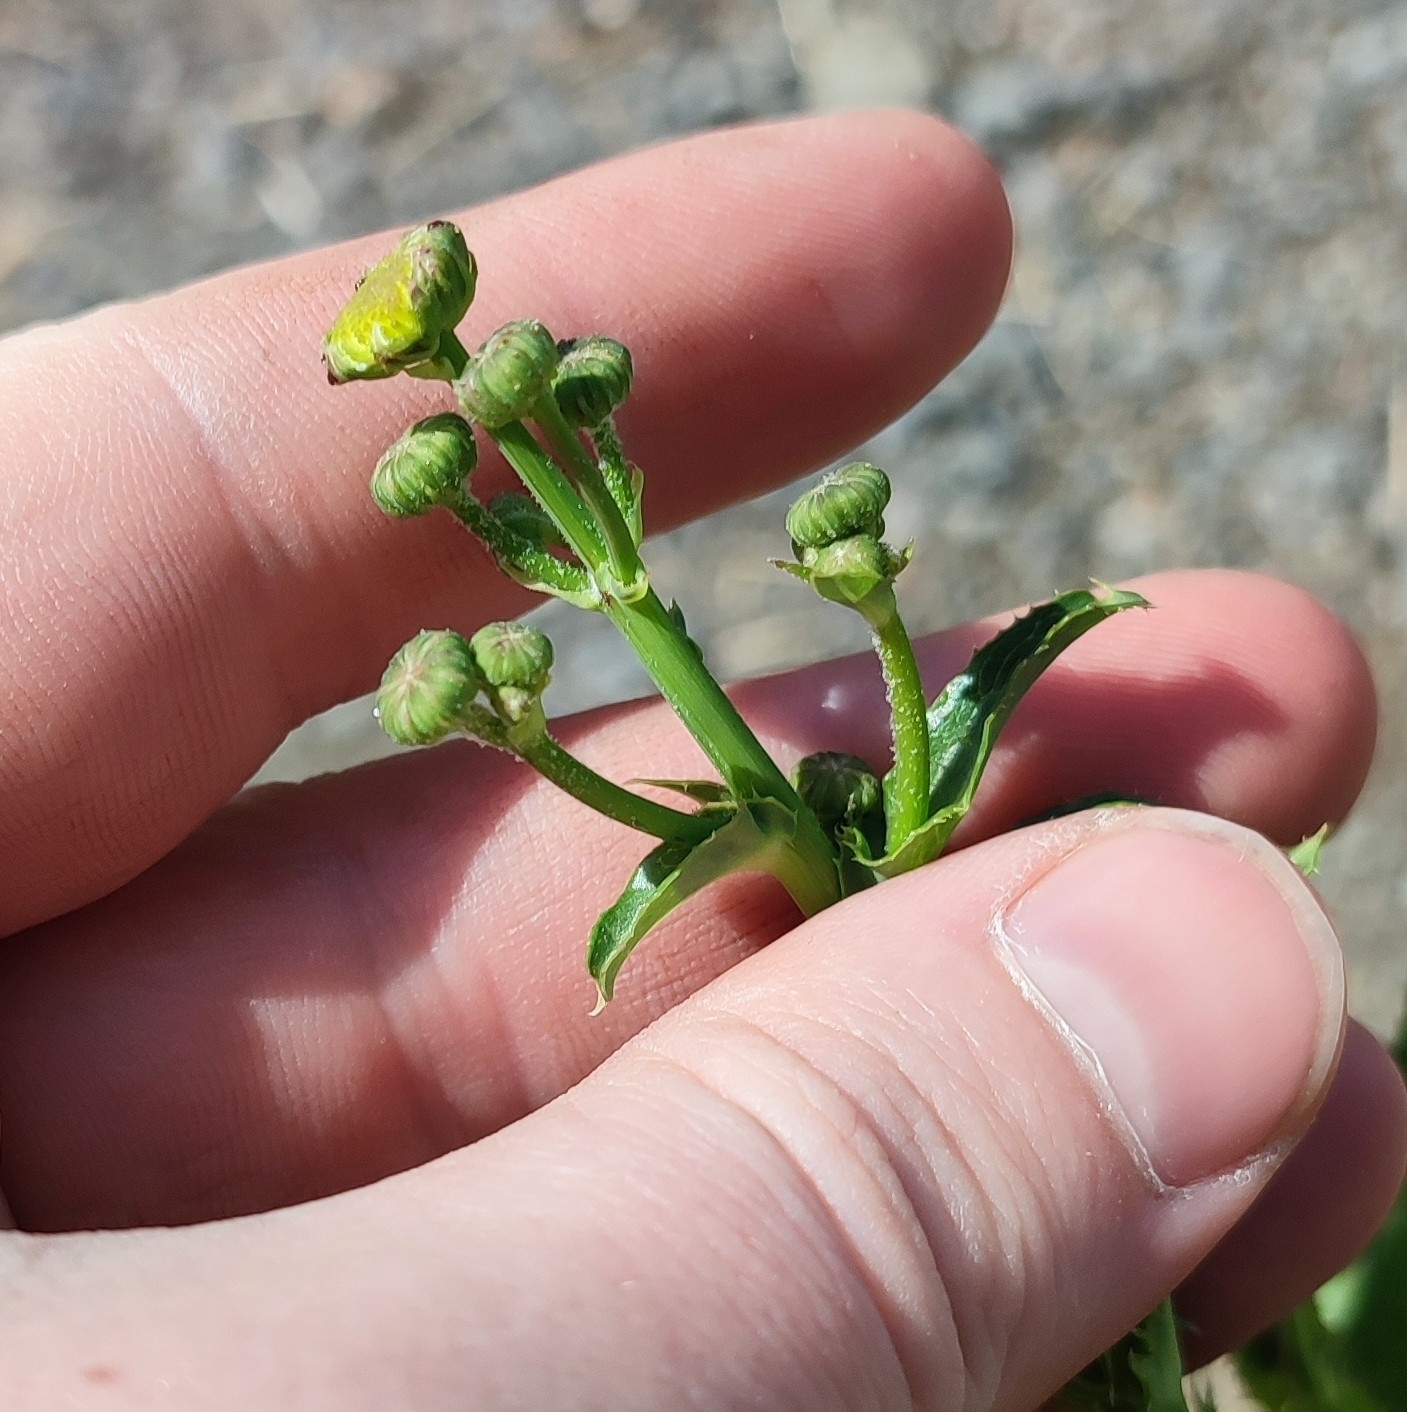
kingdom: Plantae
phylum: Tracheophyta
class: Magnoliopsida
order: Asterales
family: Asteraceae
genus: Sonchus
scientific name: Sonchus arvensis
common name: Perennial sow-thistle
